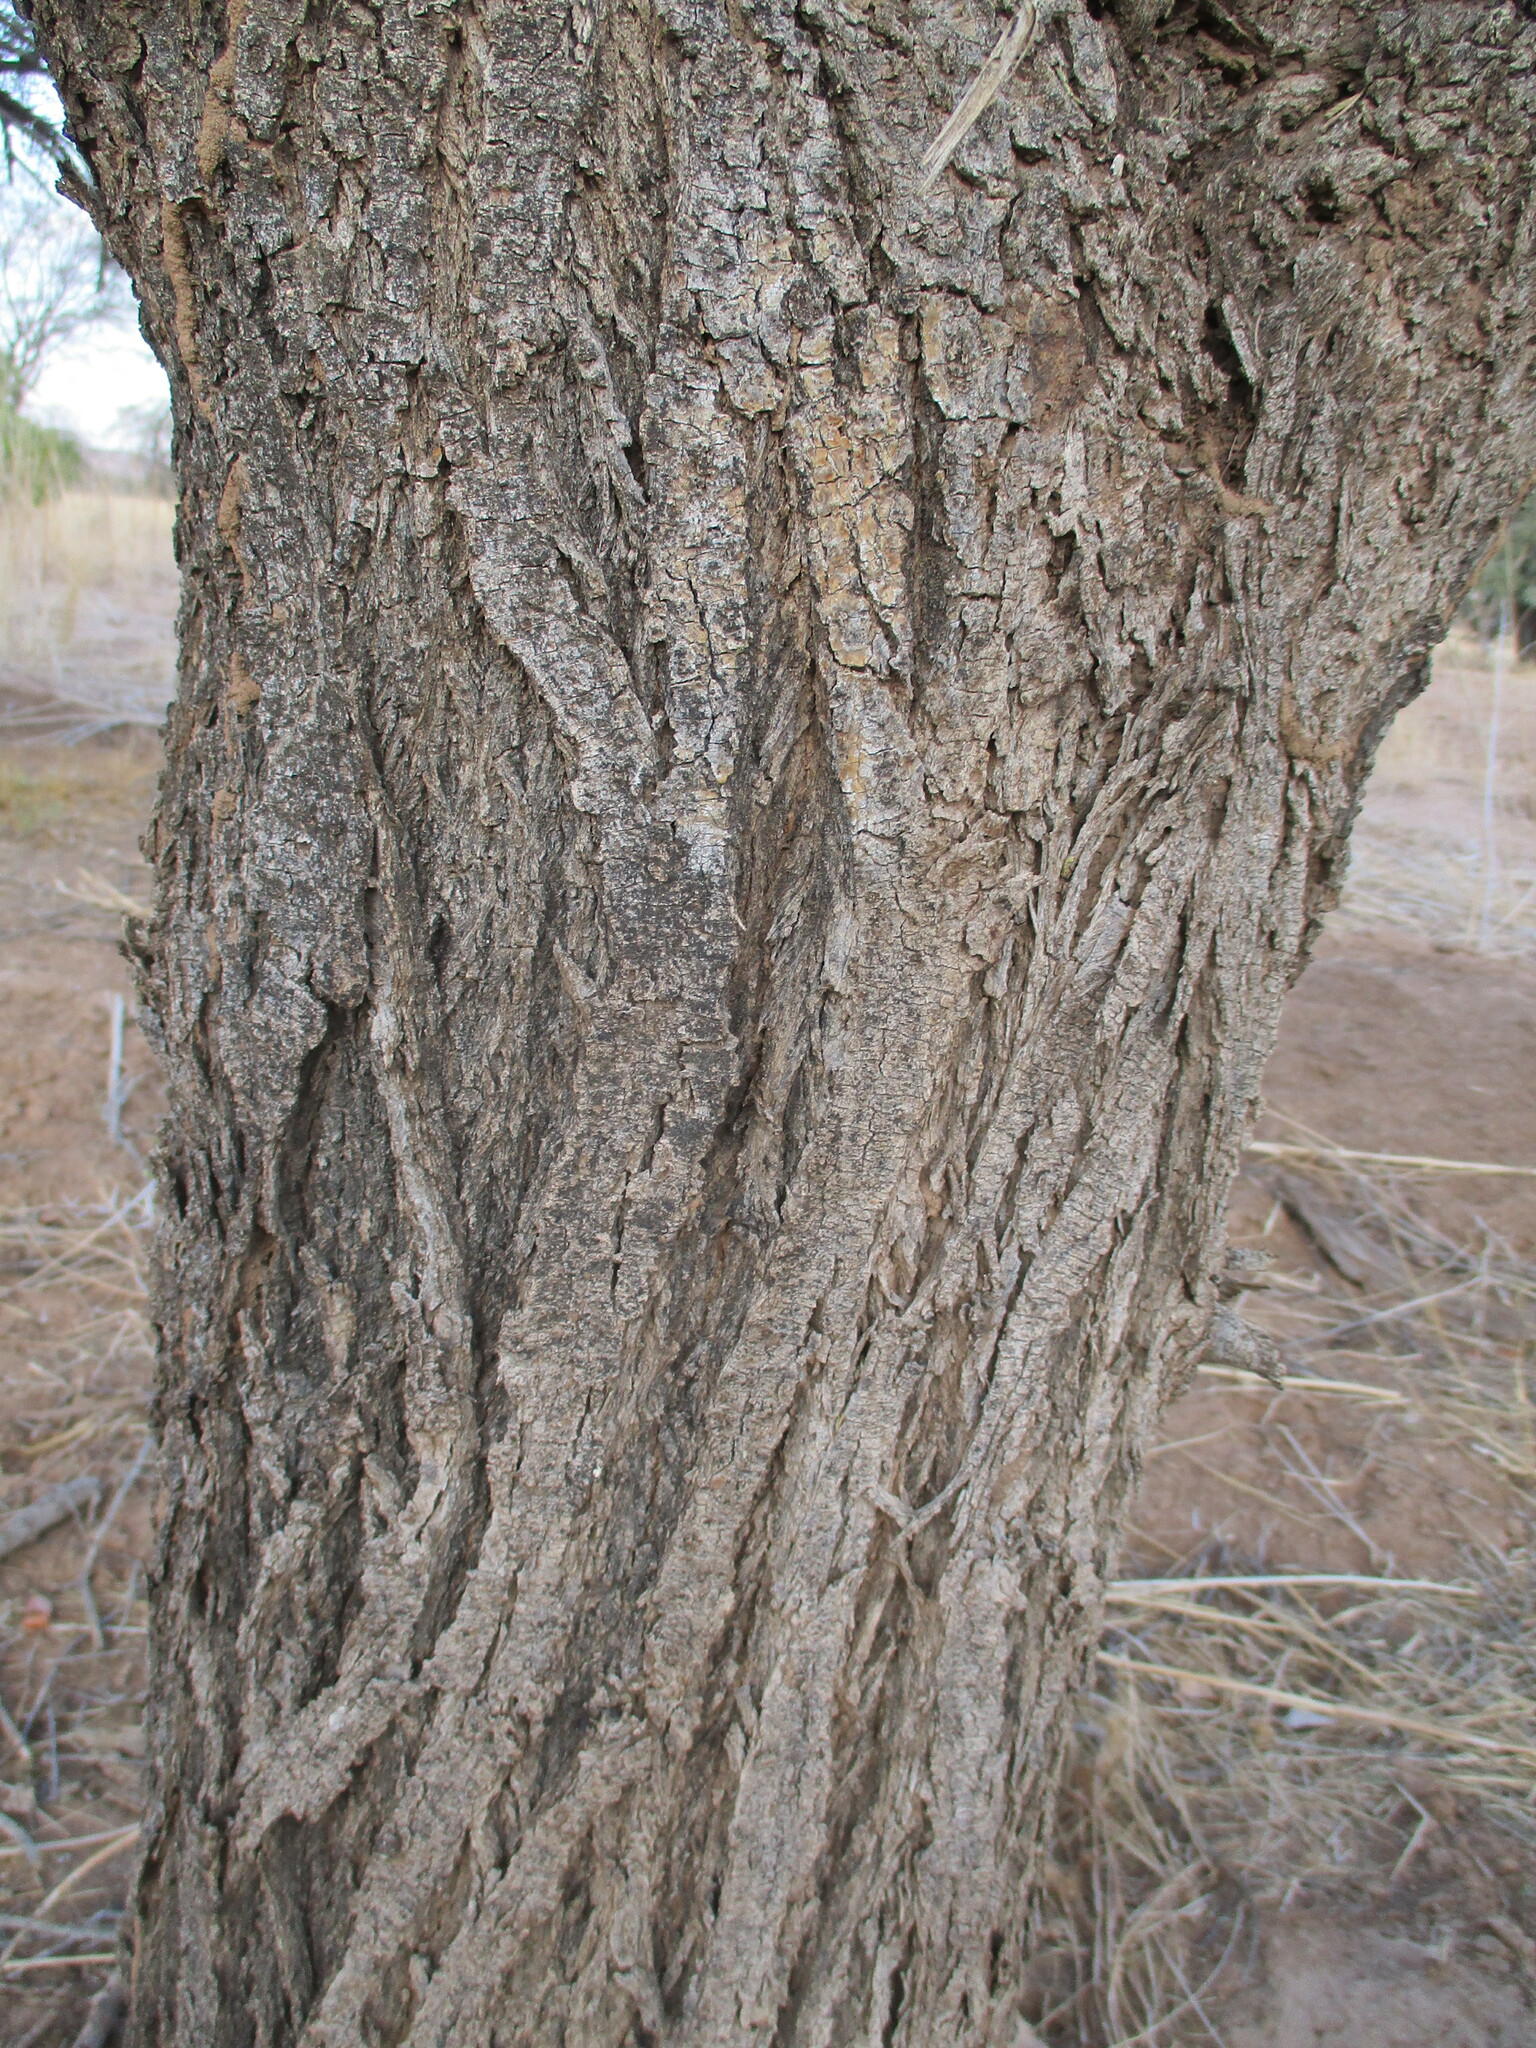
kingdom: Plantae
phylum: Tracheophyta
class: Magnoliopsida
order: Fabales
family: Fabaceae
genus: Vachellia
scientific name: Vachellia tortilis
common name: Umbrella thorn acacia
